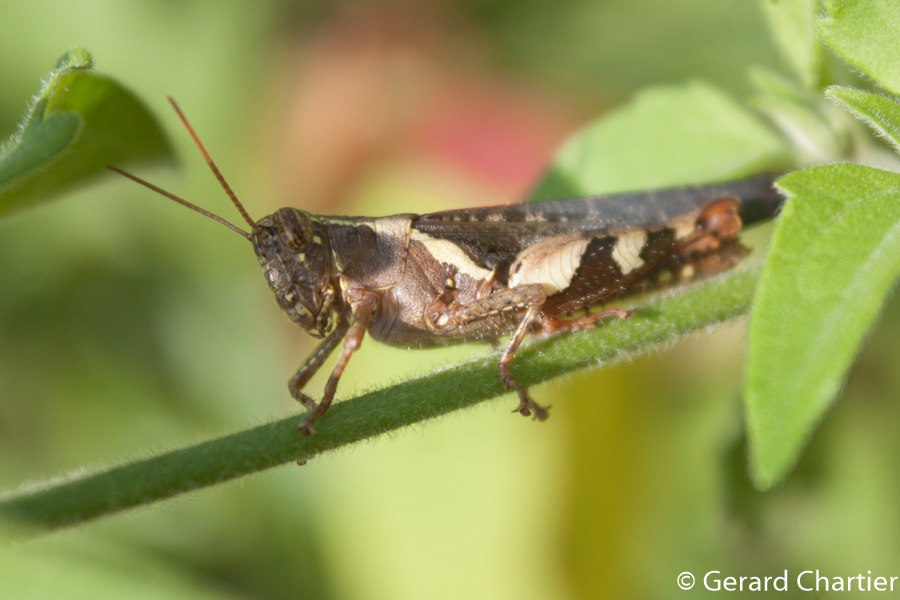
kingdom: Animalia
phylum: Arthropoda
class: Insecta
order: Orthoptera
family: Acrididae
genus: Xenocatantops
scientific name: Xenocatantops humile
